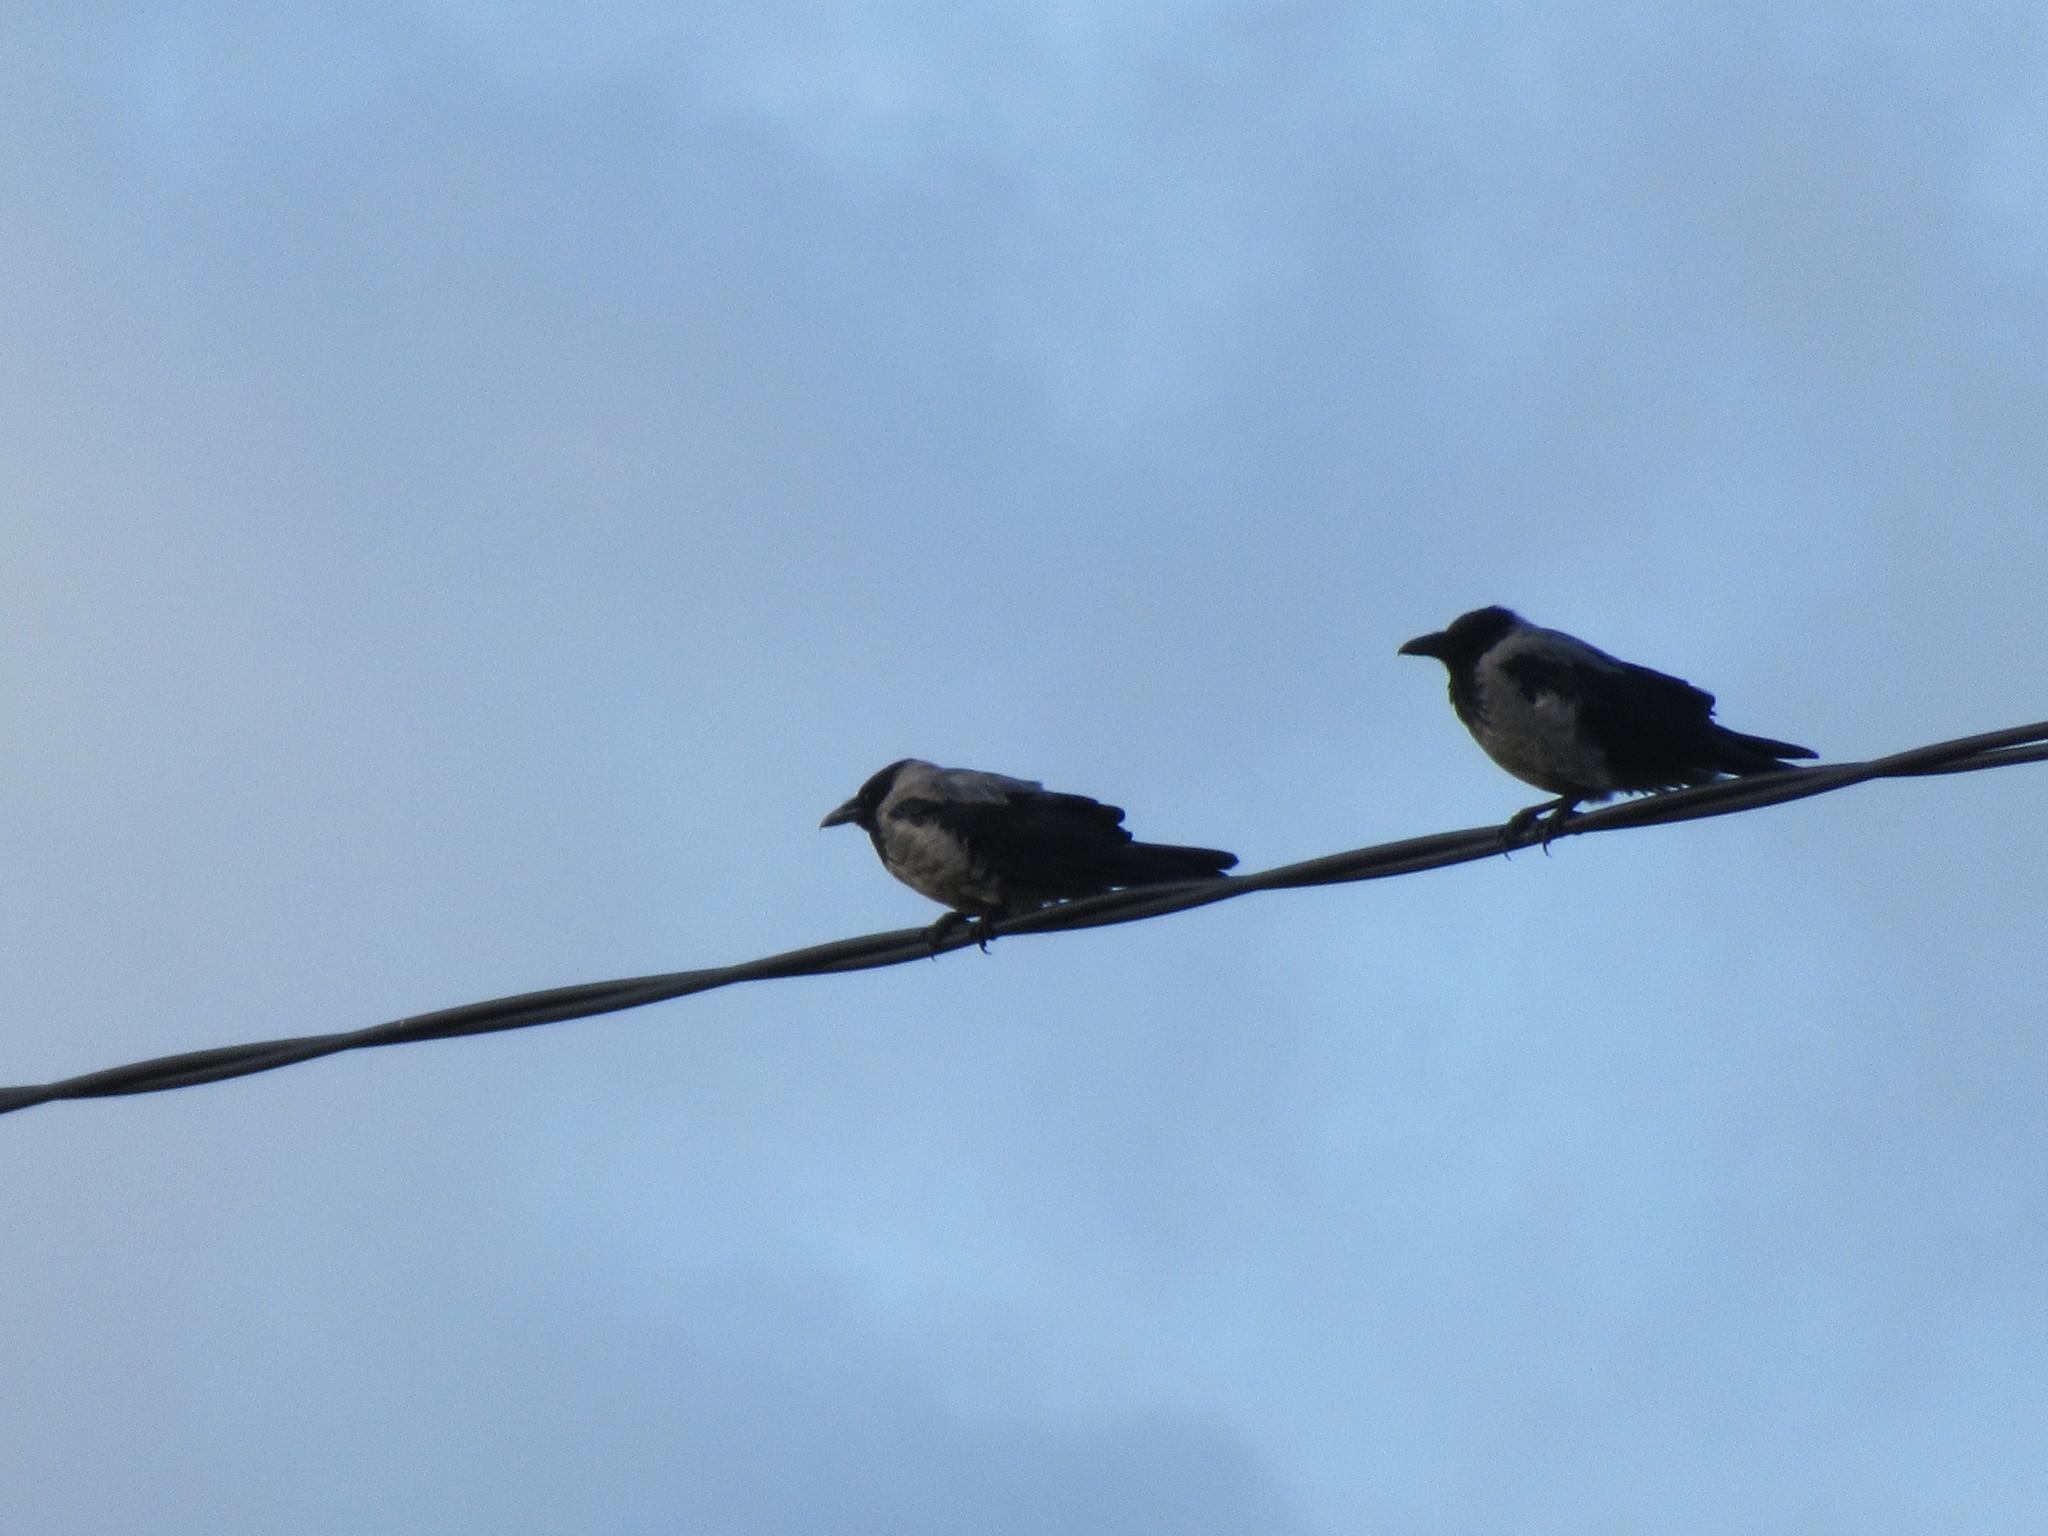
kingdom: Animalia
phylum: Chordata
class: Aves
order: Passeriformes
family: Corvidae
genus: Corvus
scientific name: Corvus cornix
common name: Hooded crow
